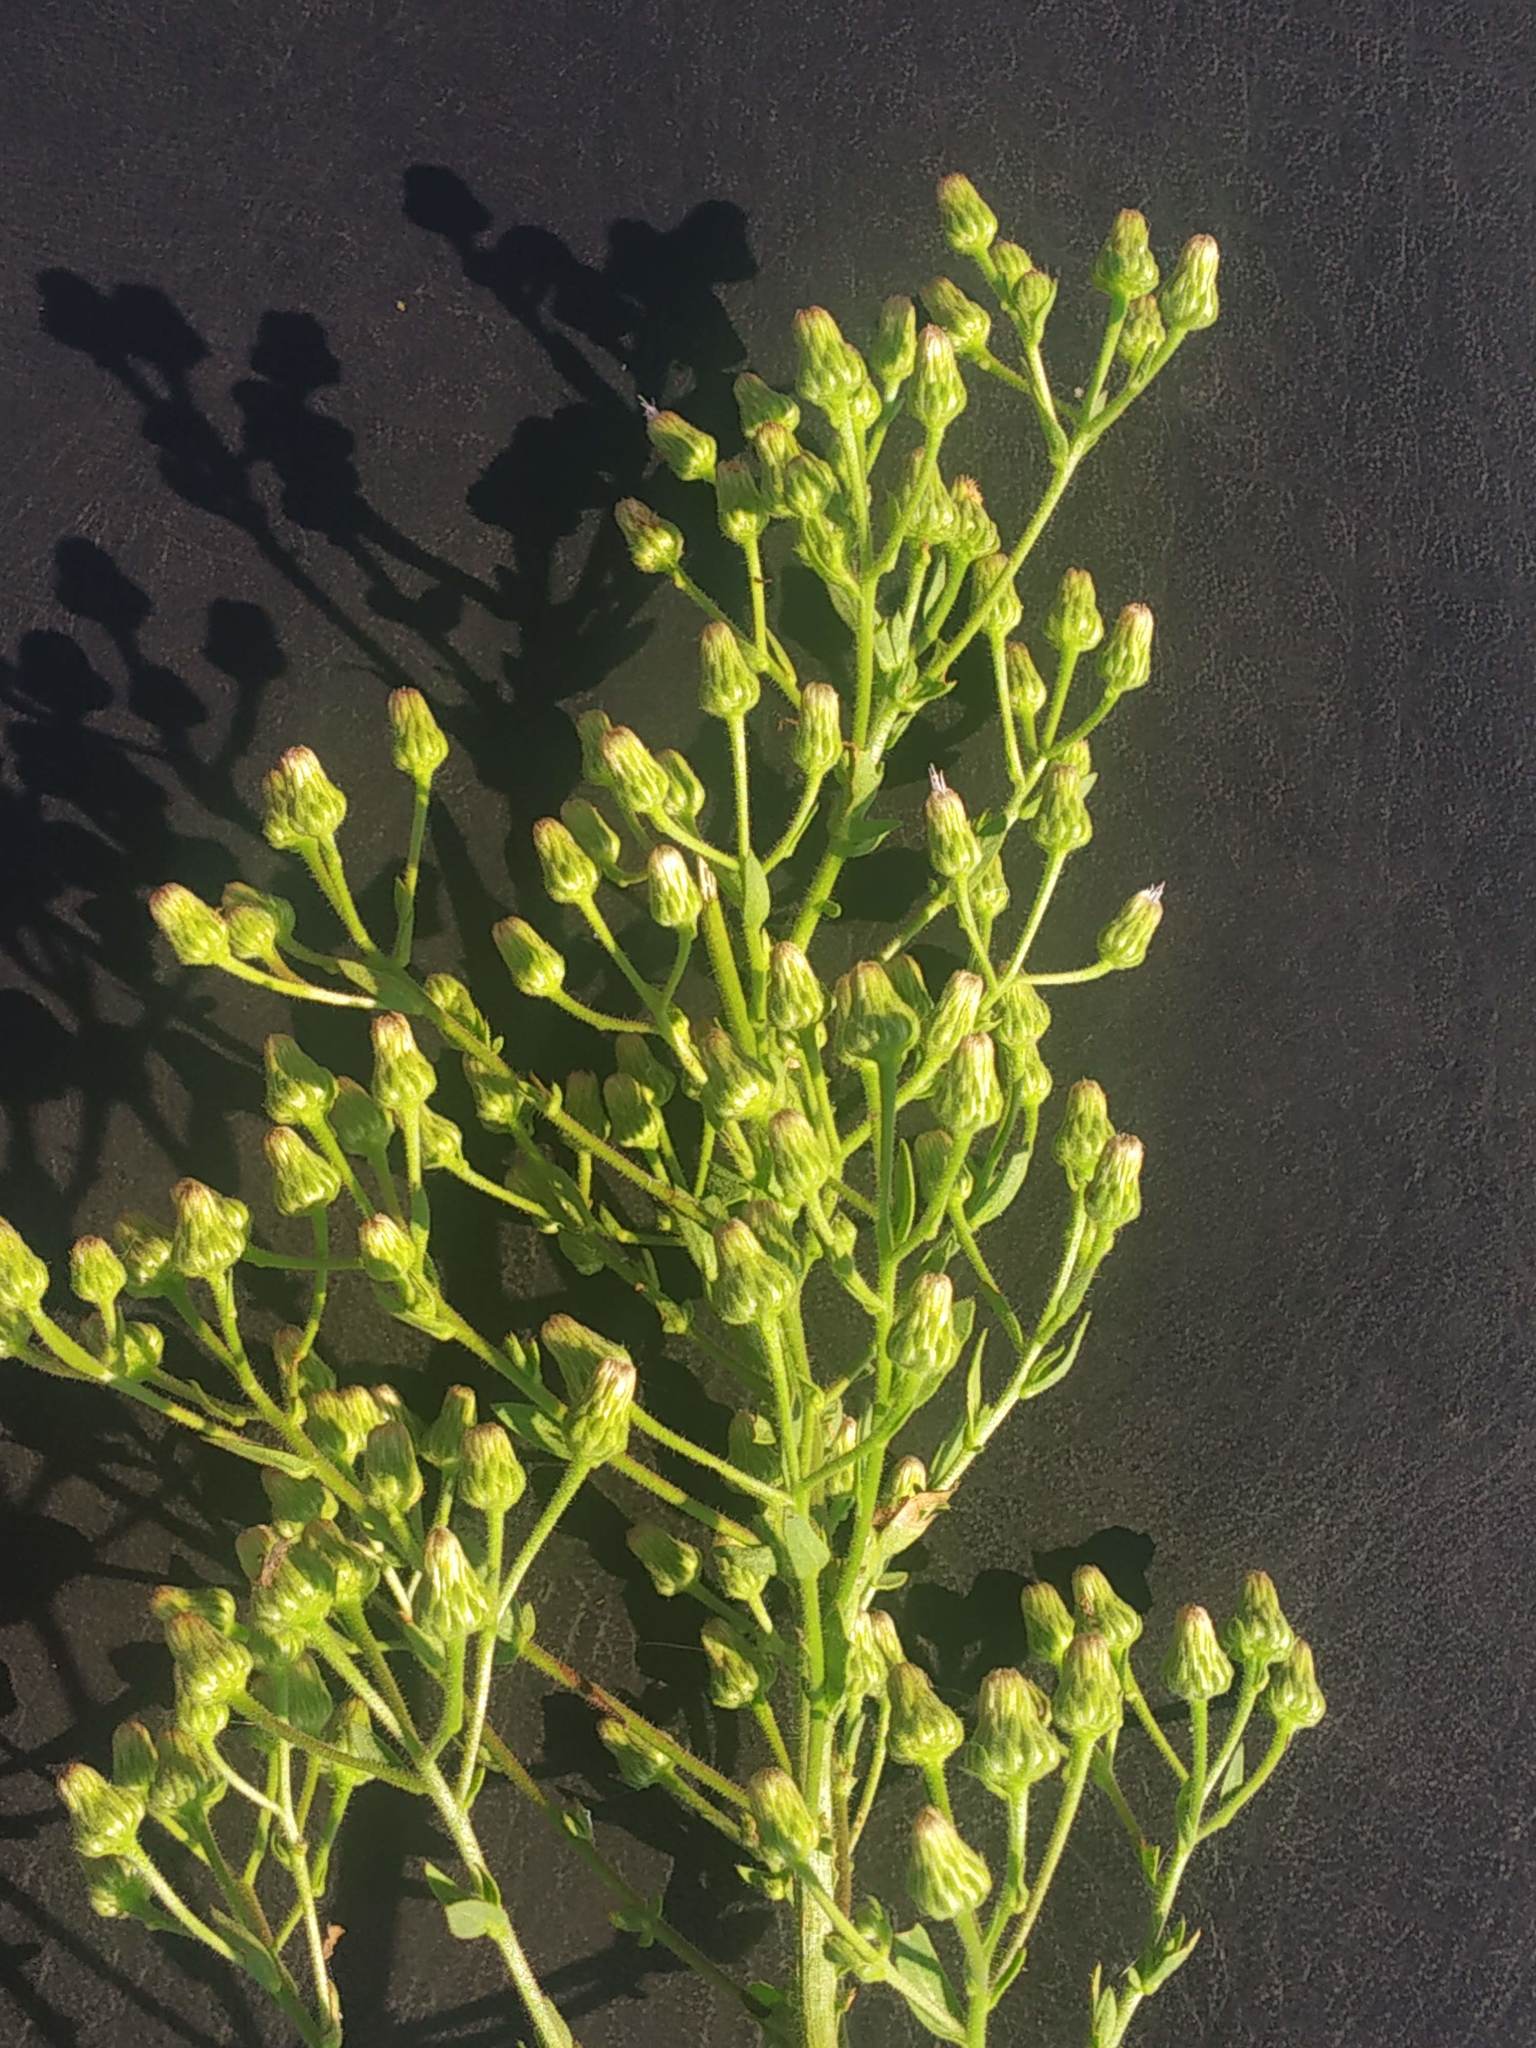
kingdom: Plantae
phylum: Tracheophyta
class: Magnoliopsida
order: Asterales
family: Asteraceae
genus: Pseudoconyza
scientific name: Pseudoconyza viscosa
